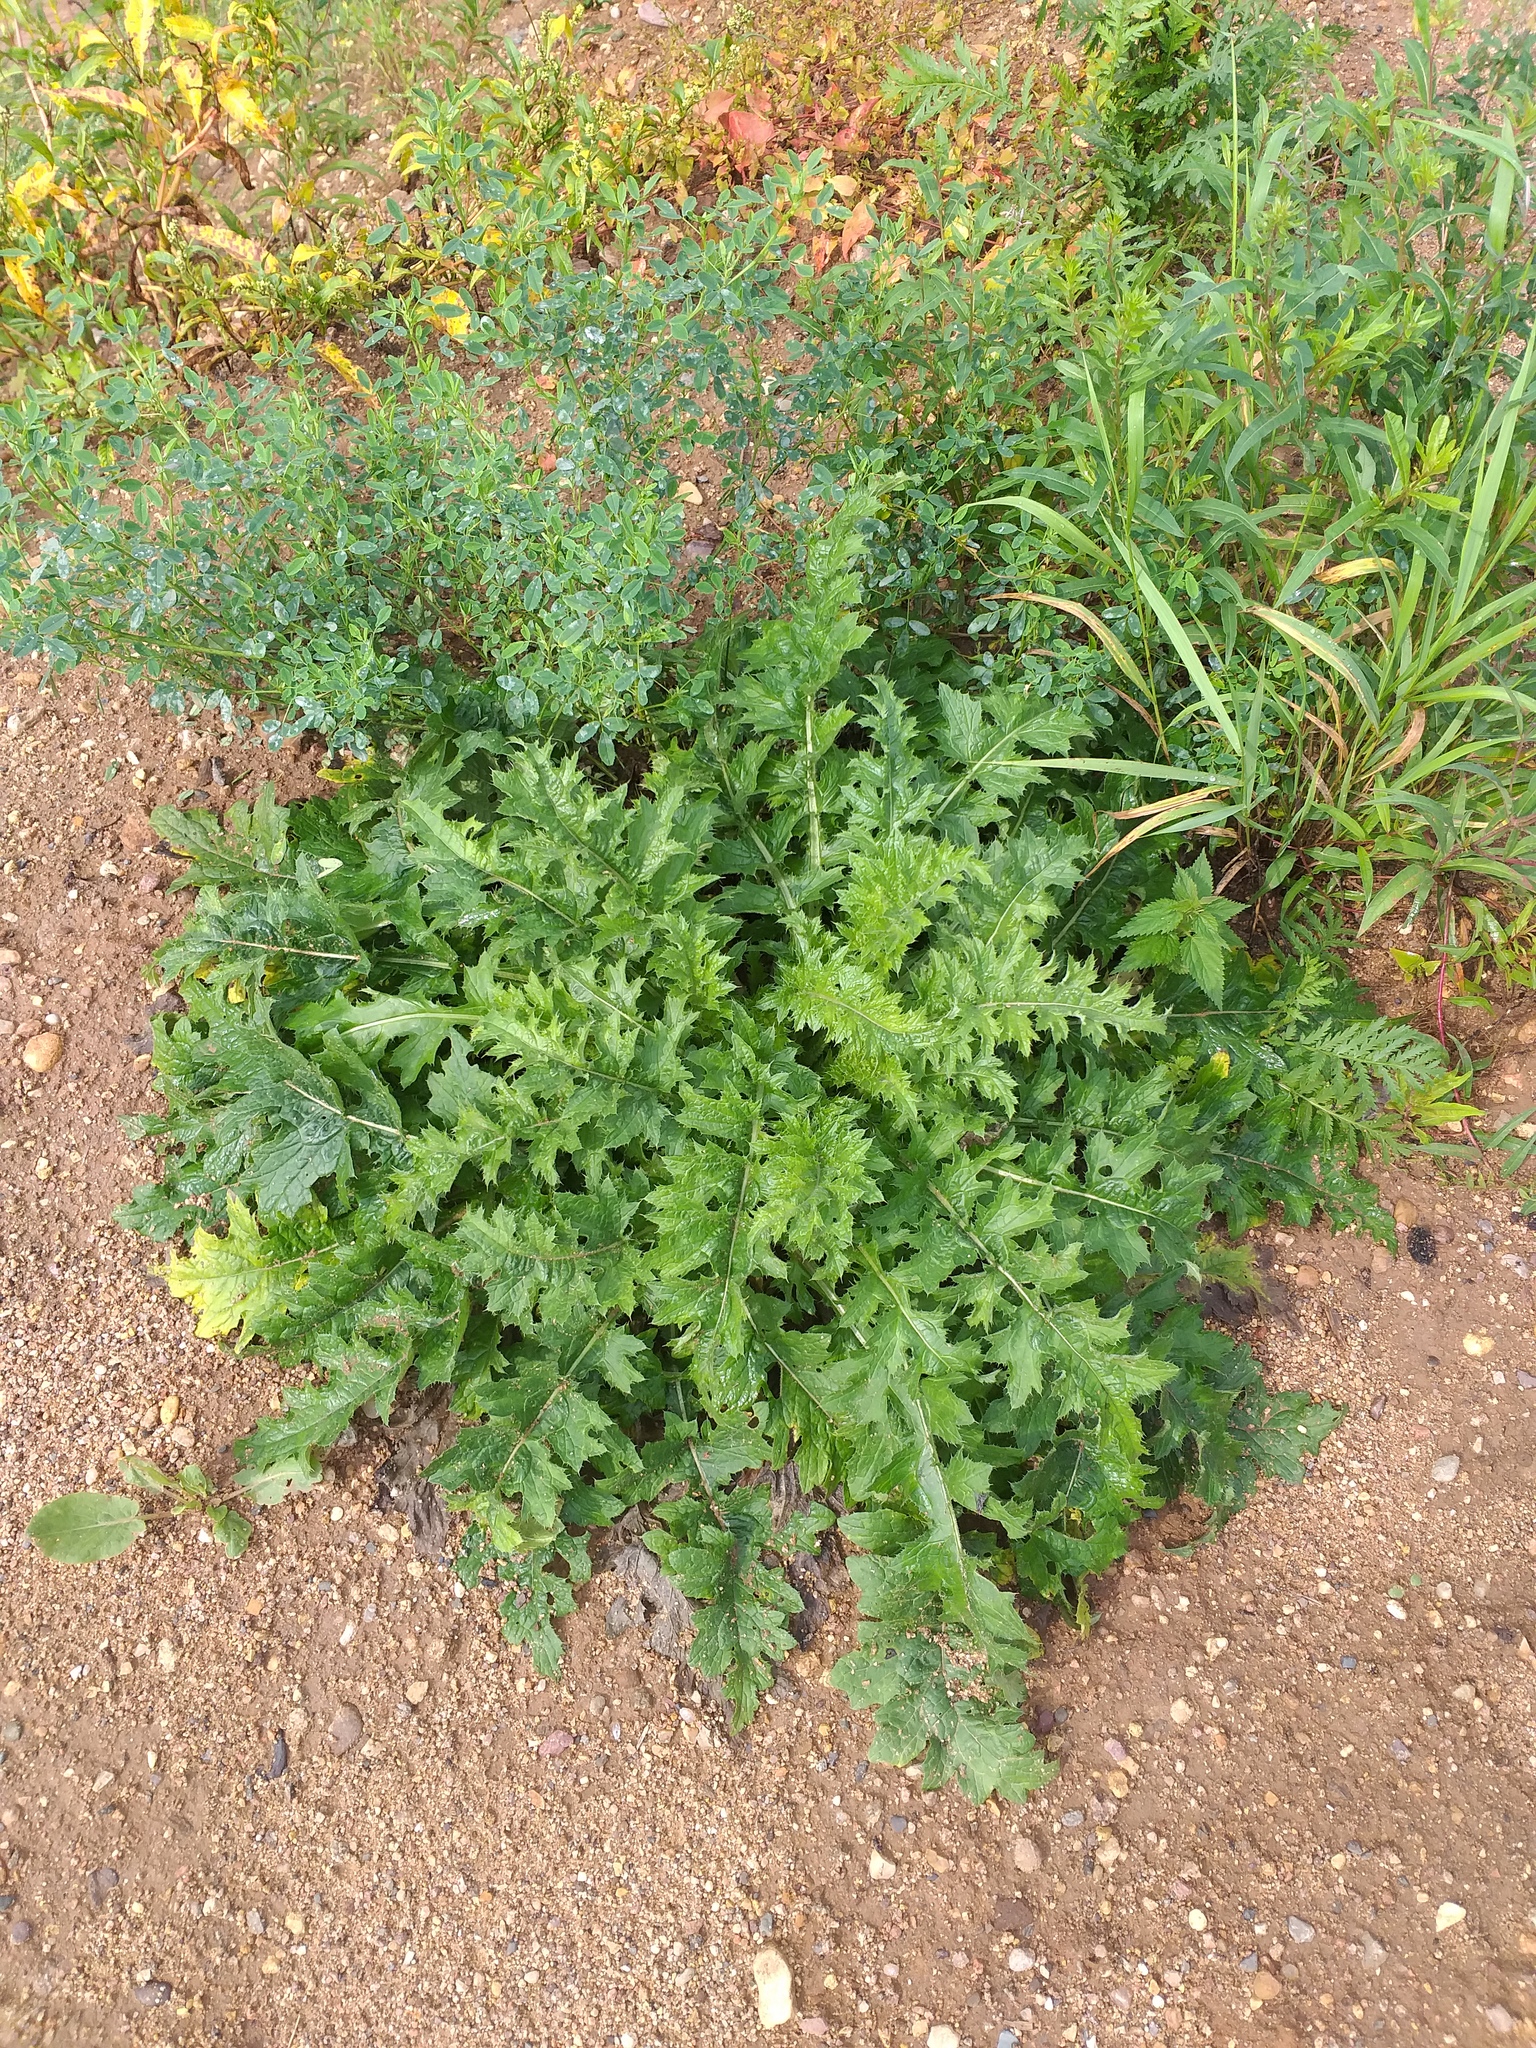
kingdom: Plantae
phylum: Tracheophyta
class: Magnoliopsida
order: Asterales
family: Asteraceae
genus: Carduus
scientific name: Carduus crispus
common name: Welted thistle
